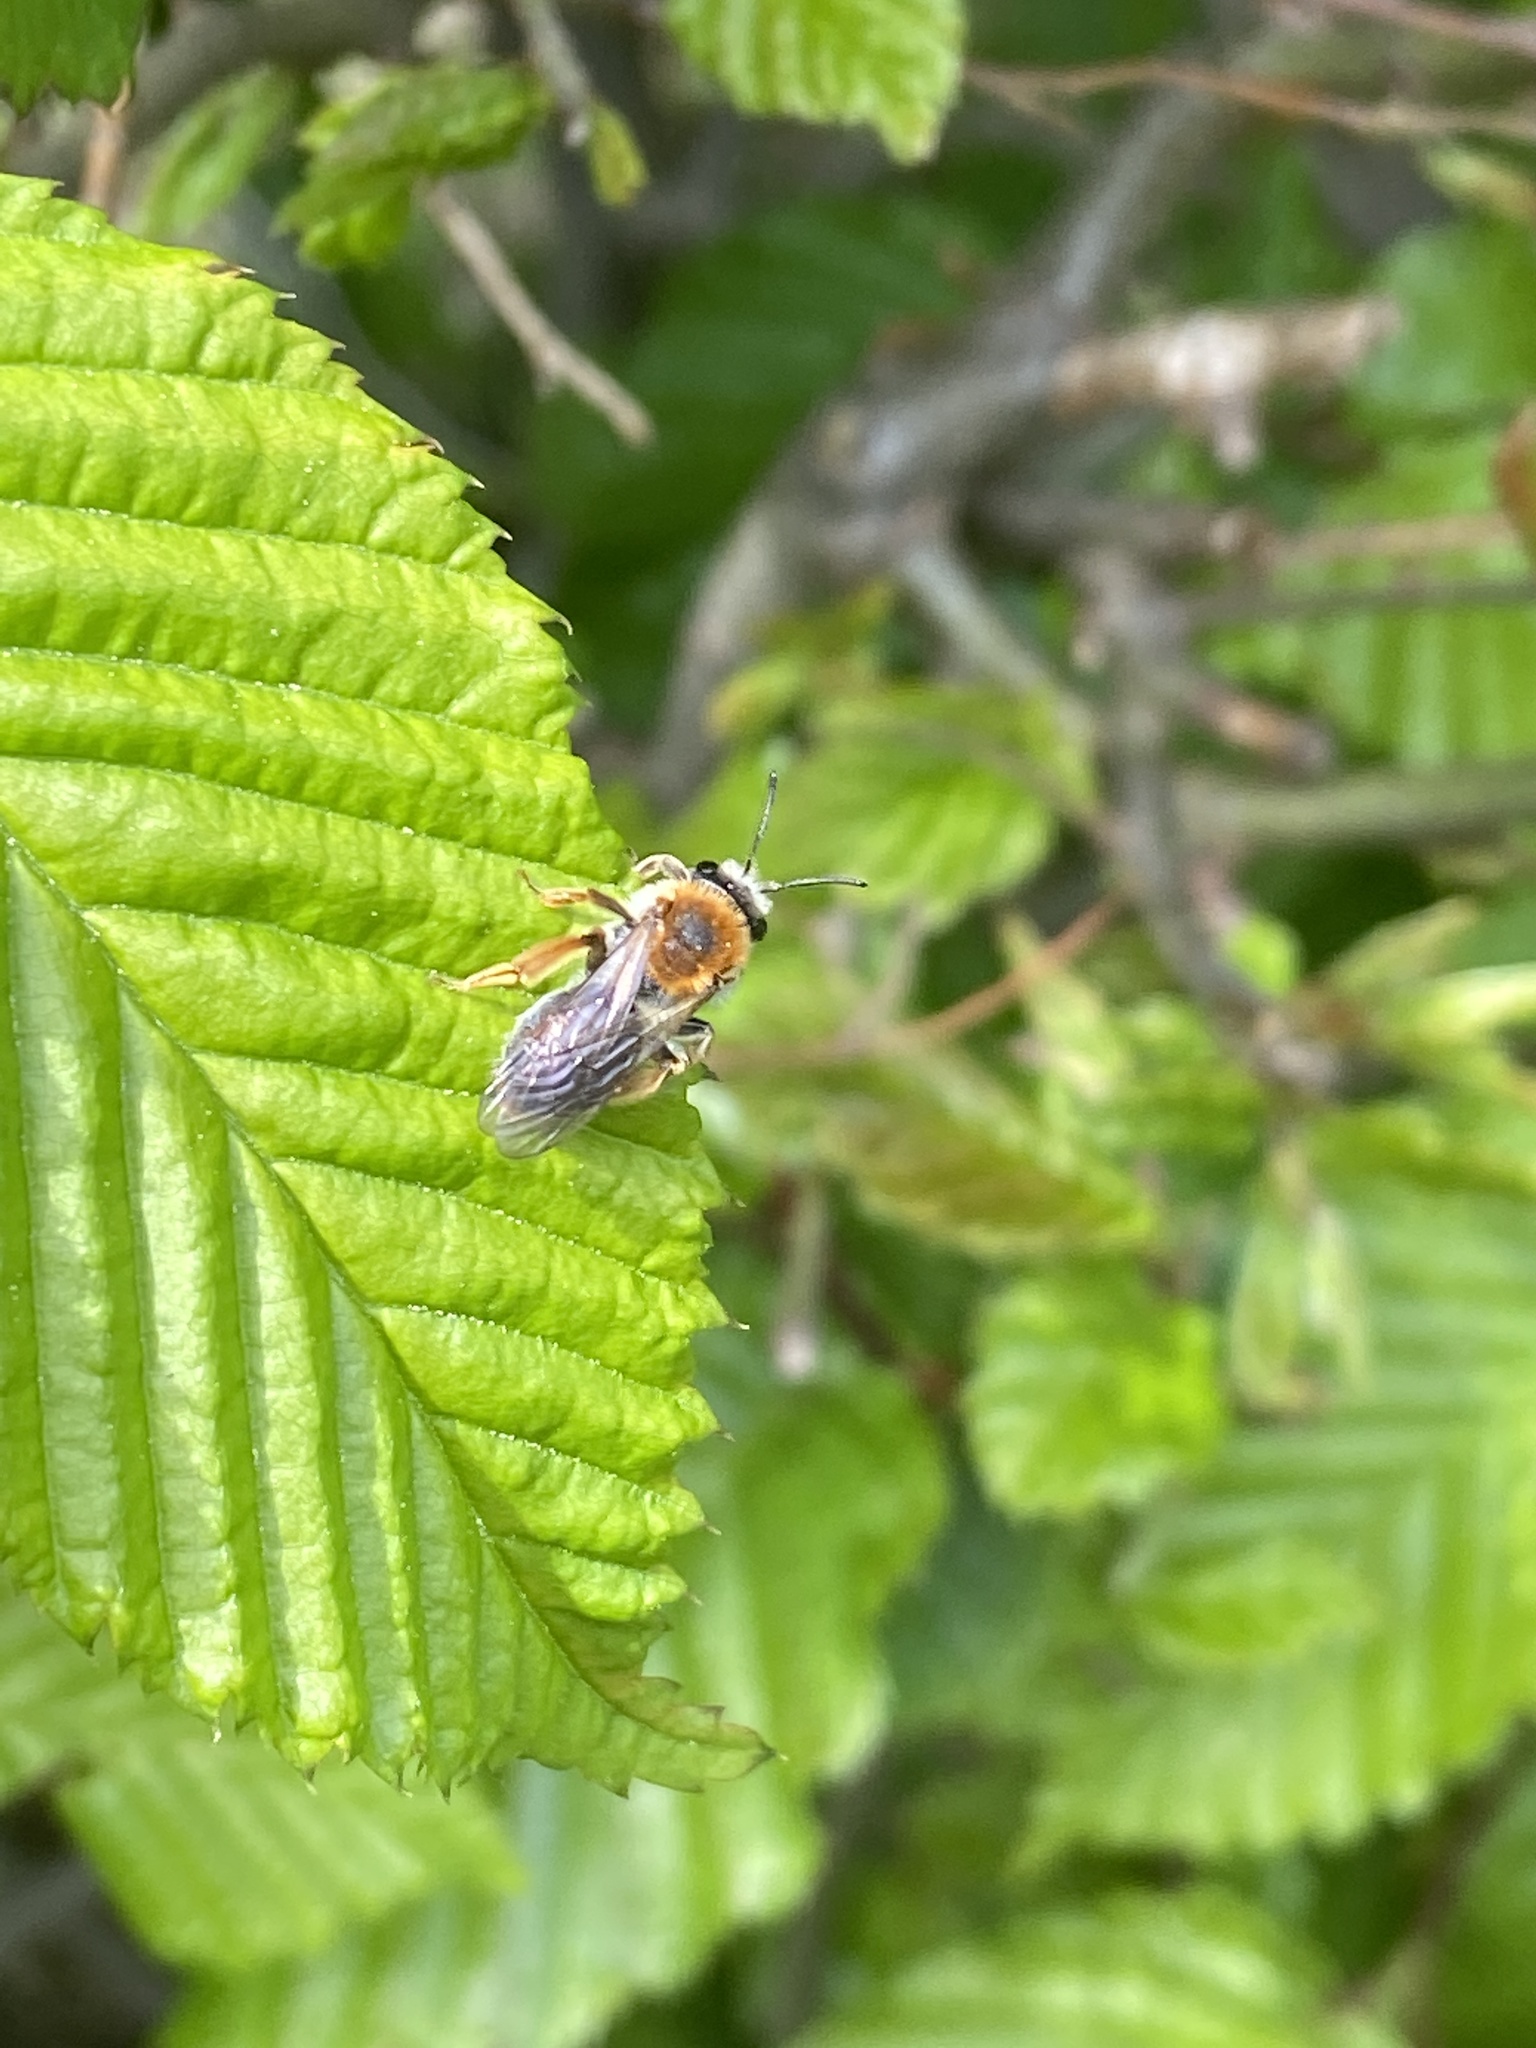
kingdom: Animalia
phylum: Arthropoda
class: Insecta
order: Hymenoptera
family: Andrenidae
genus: Andrena
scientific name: Andrena haemorrhoa
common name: Early mining bee
